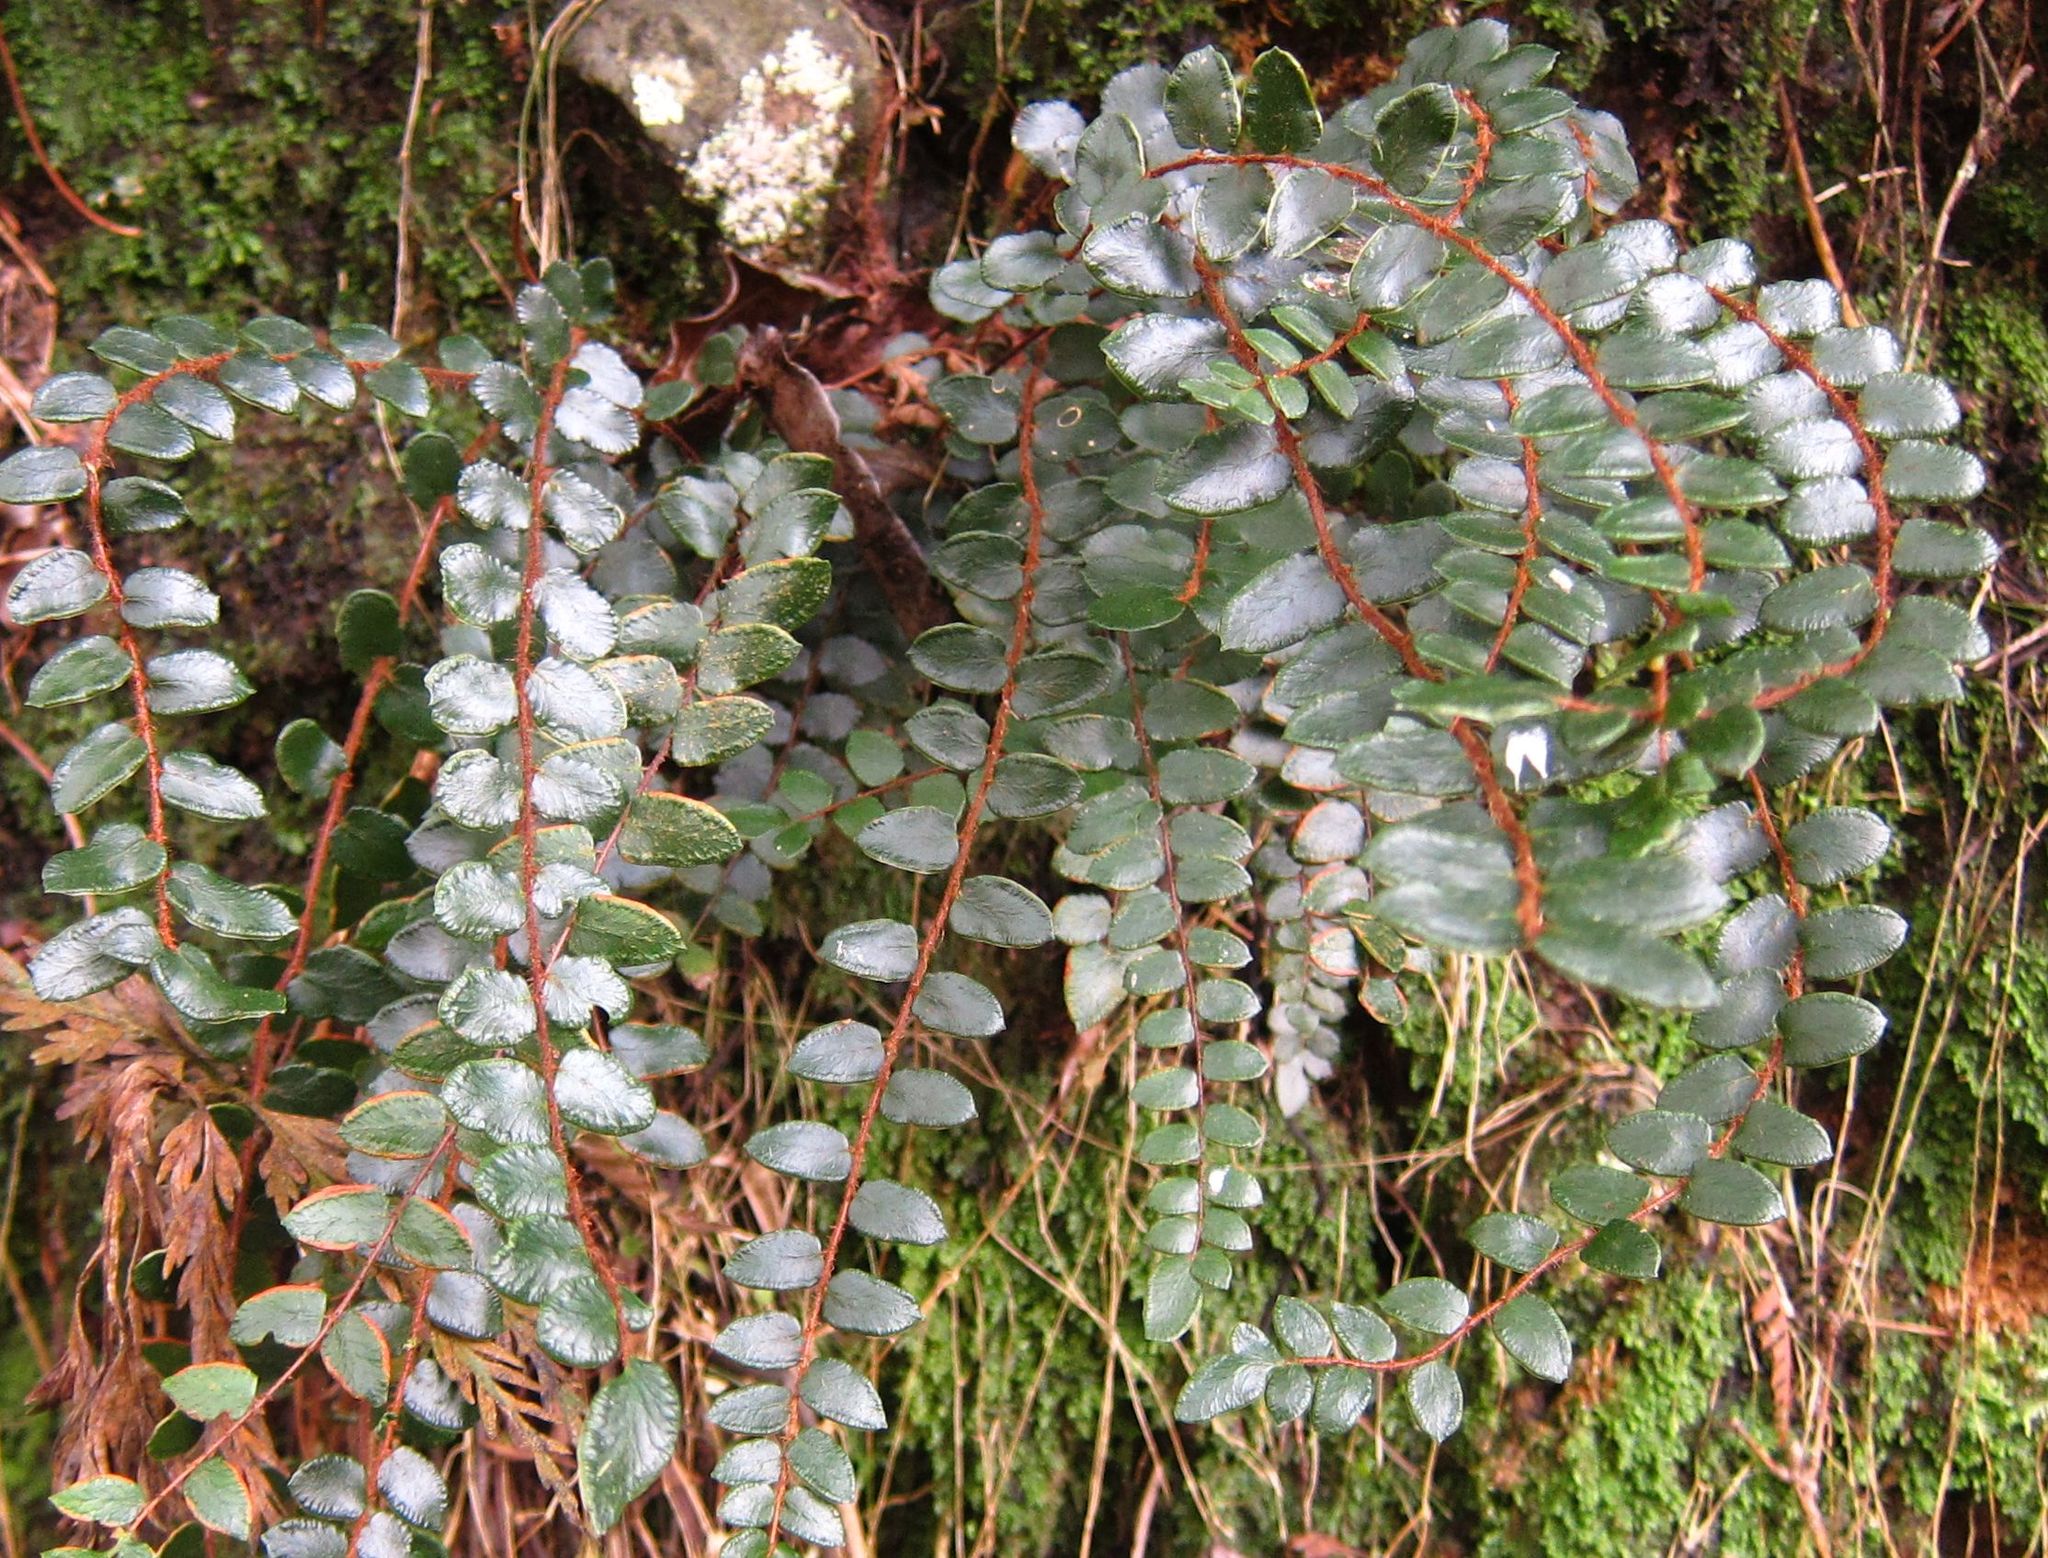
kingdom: Plantae
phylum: Tracheophyta
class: Polypodiopsida
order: Polypodiales
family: Pteridaceae
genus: Pellaea
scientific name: Pellaea rotundifolia
